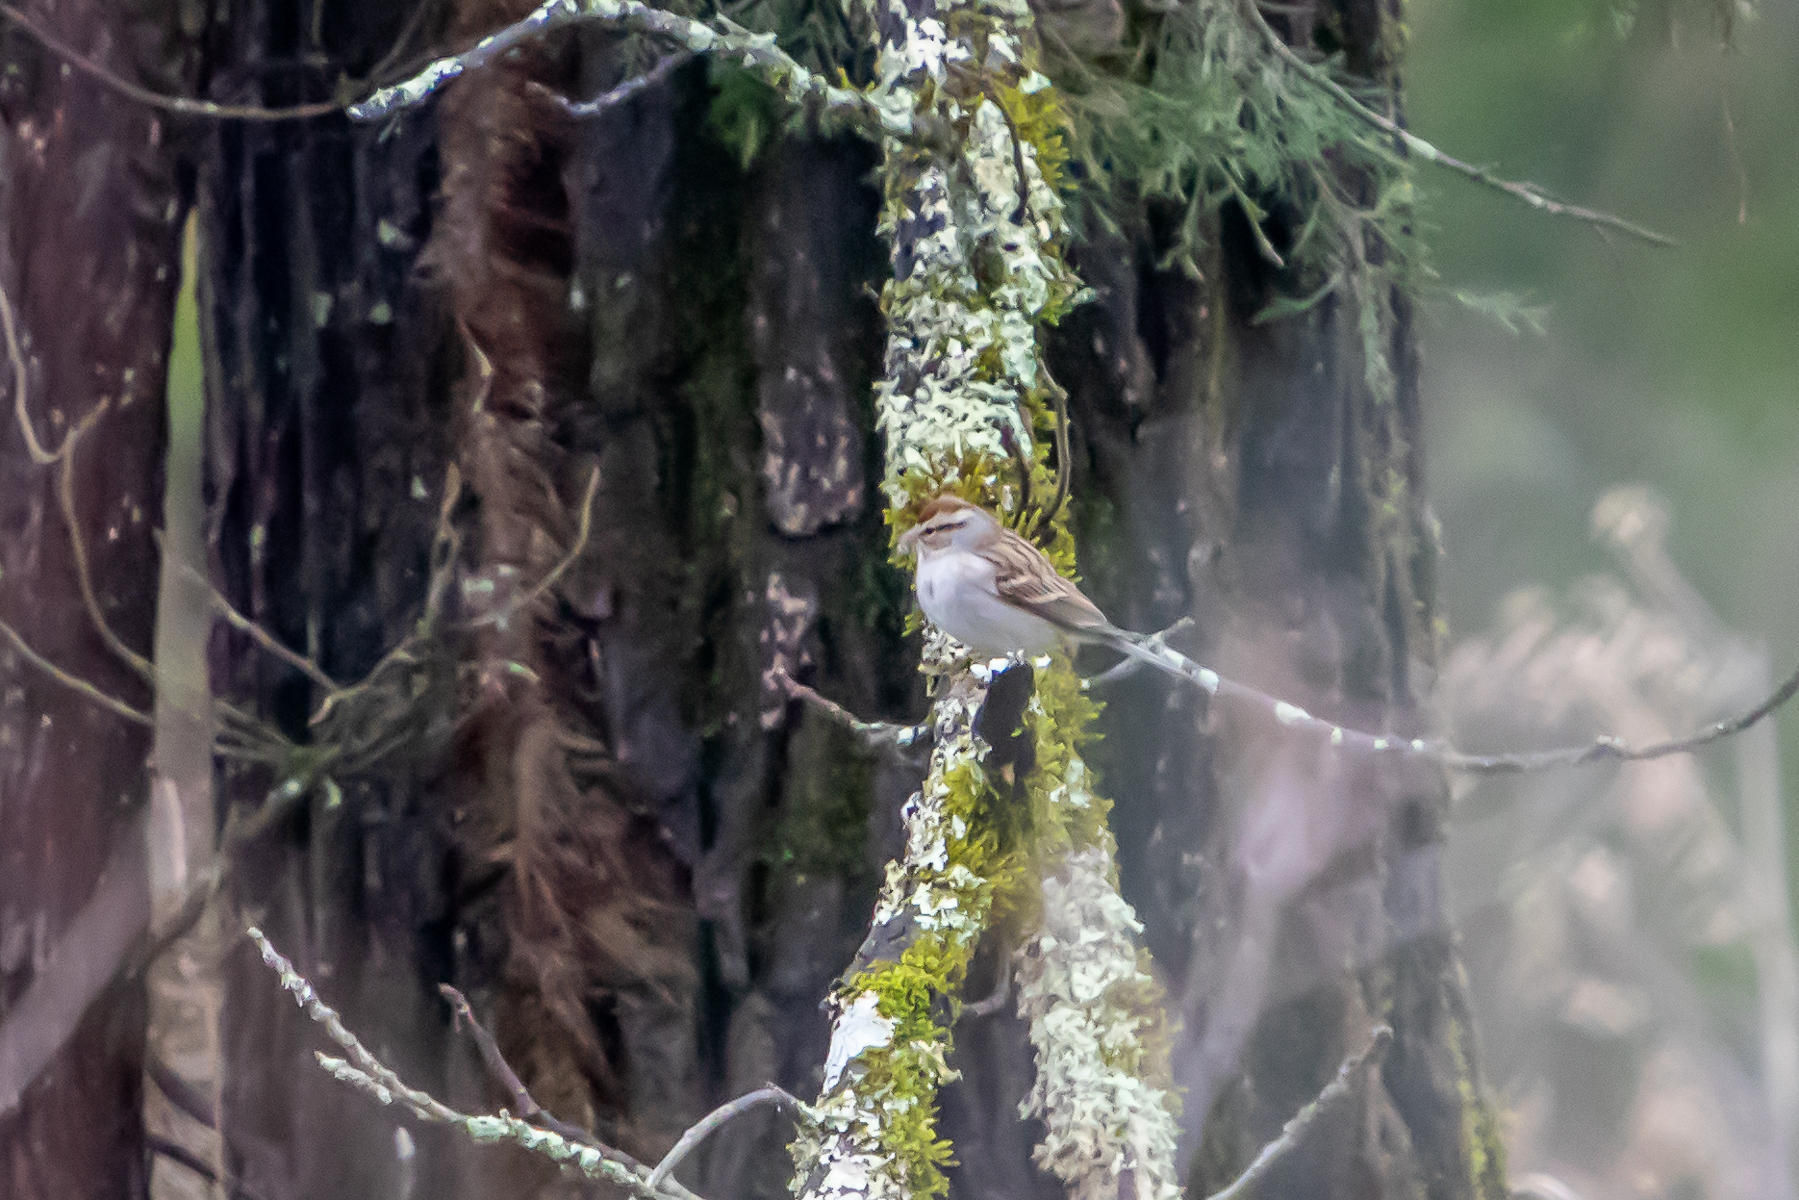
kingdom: Animalia
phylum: Chordata
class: Aves
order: Passeriformes
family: Passerellidae
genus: Spizella
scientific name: Spizella passerina
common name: Chipping sparrow
